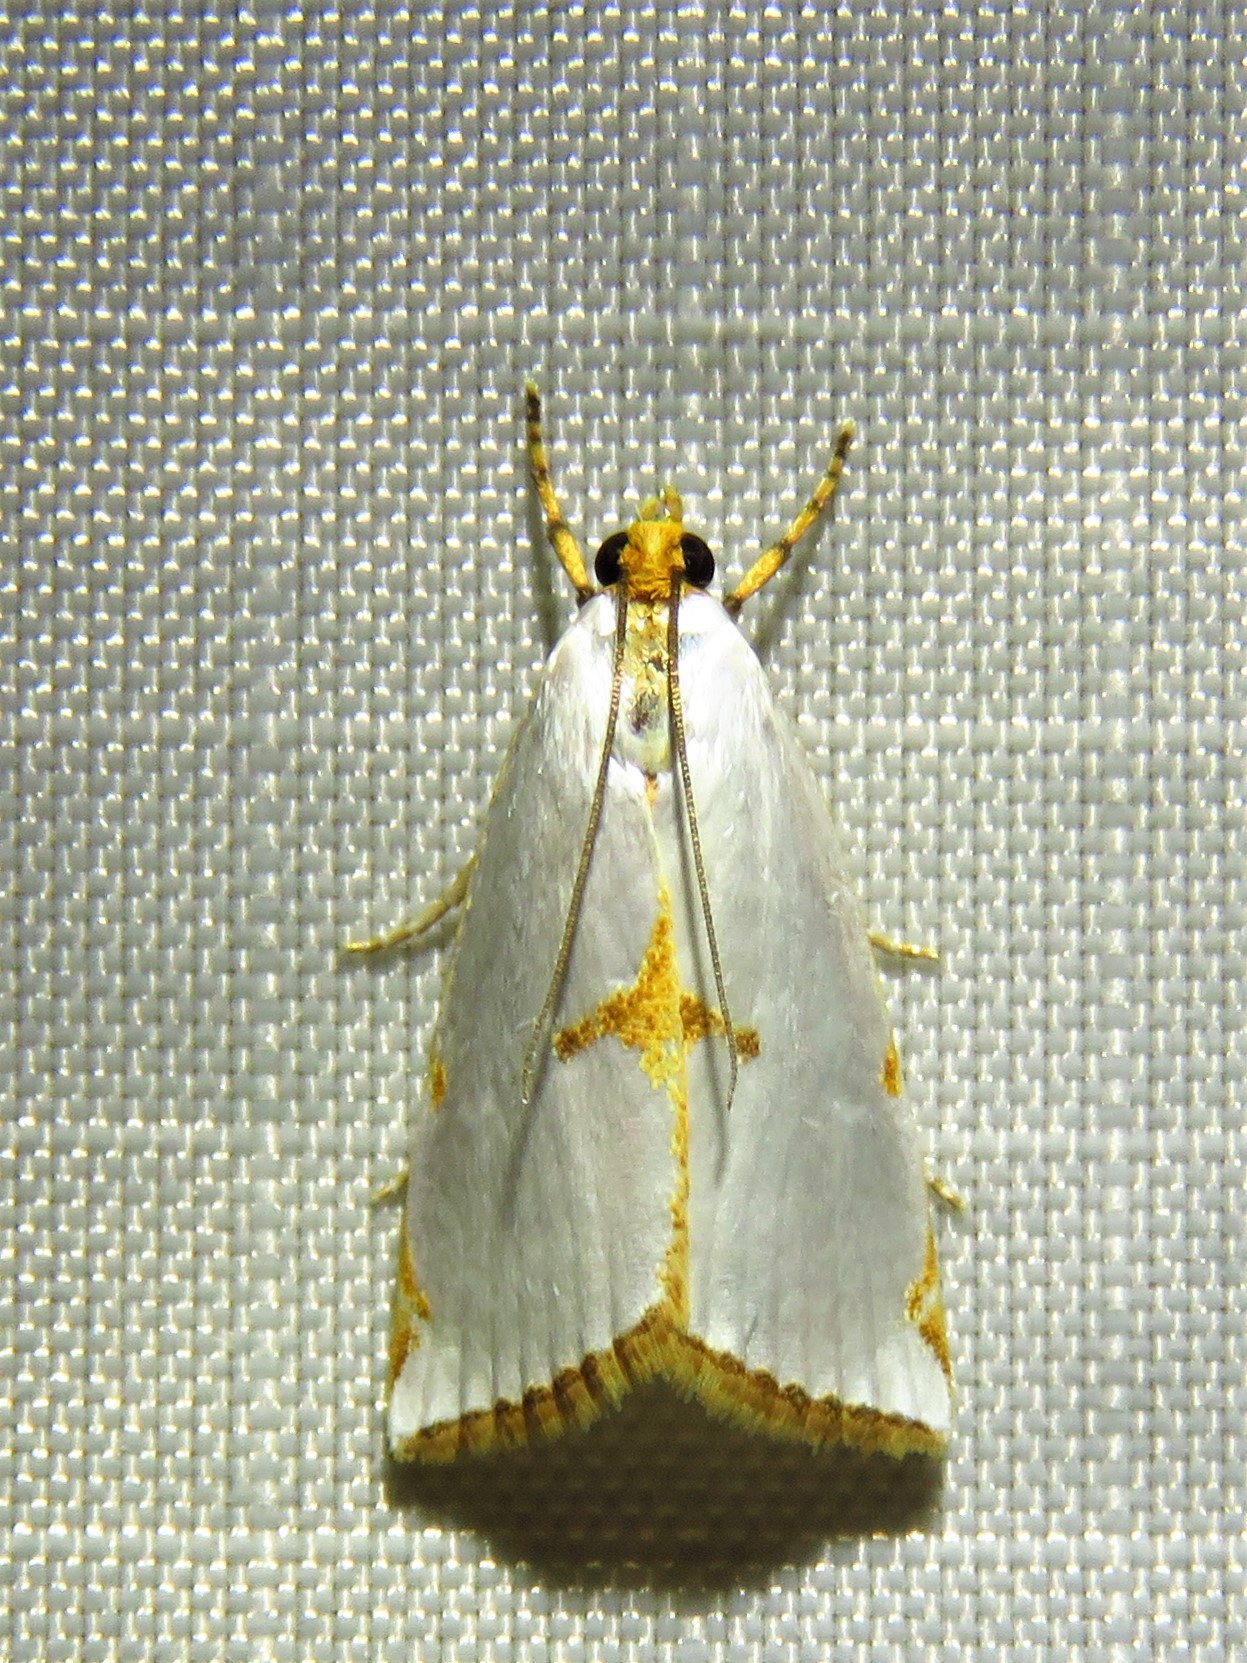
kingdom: Animalia
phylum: Arthropoda
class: Insecta
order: Lepidoptera
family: Crambidae
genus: Argyria
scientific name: Argyria lacteella
